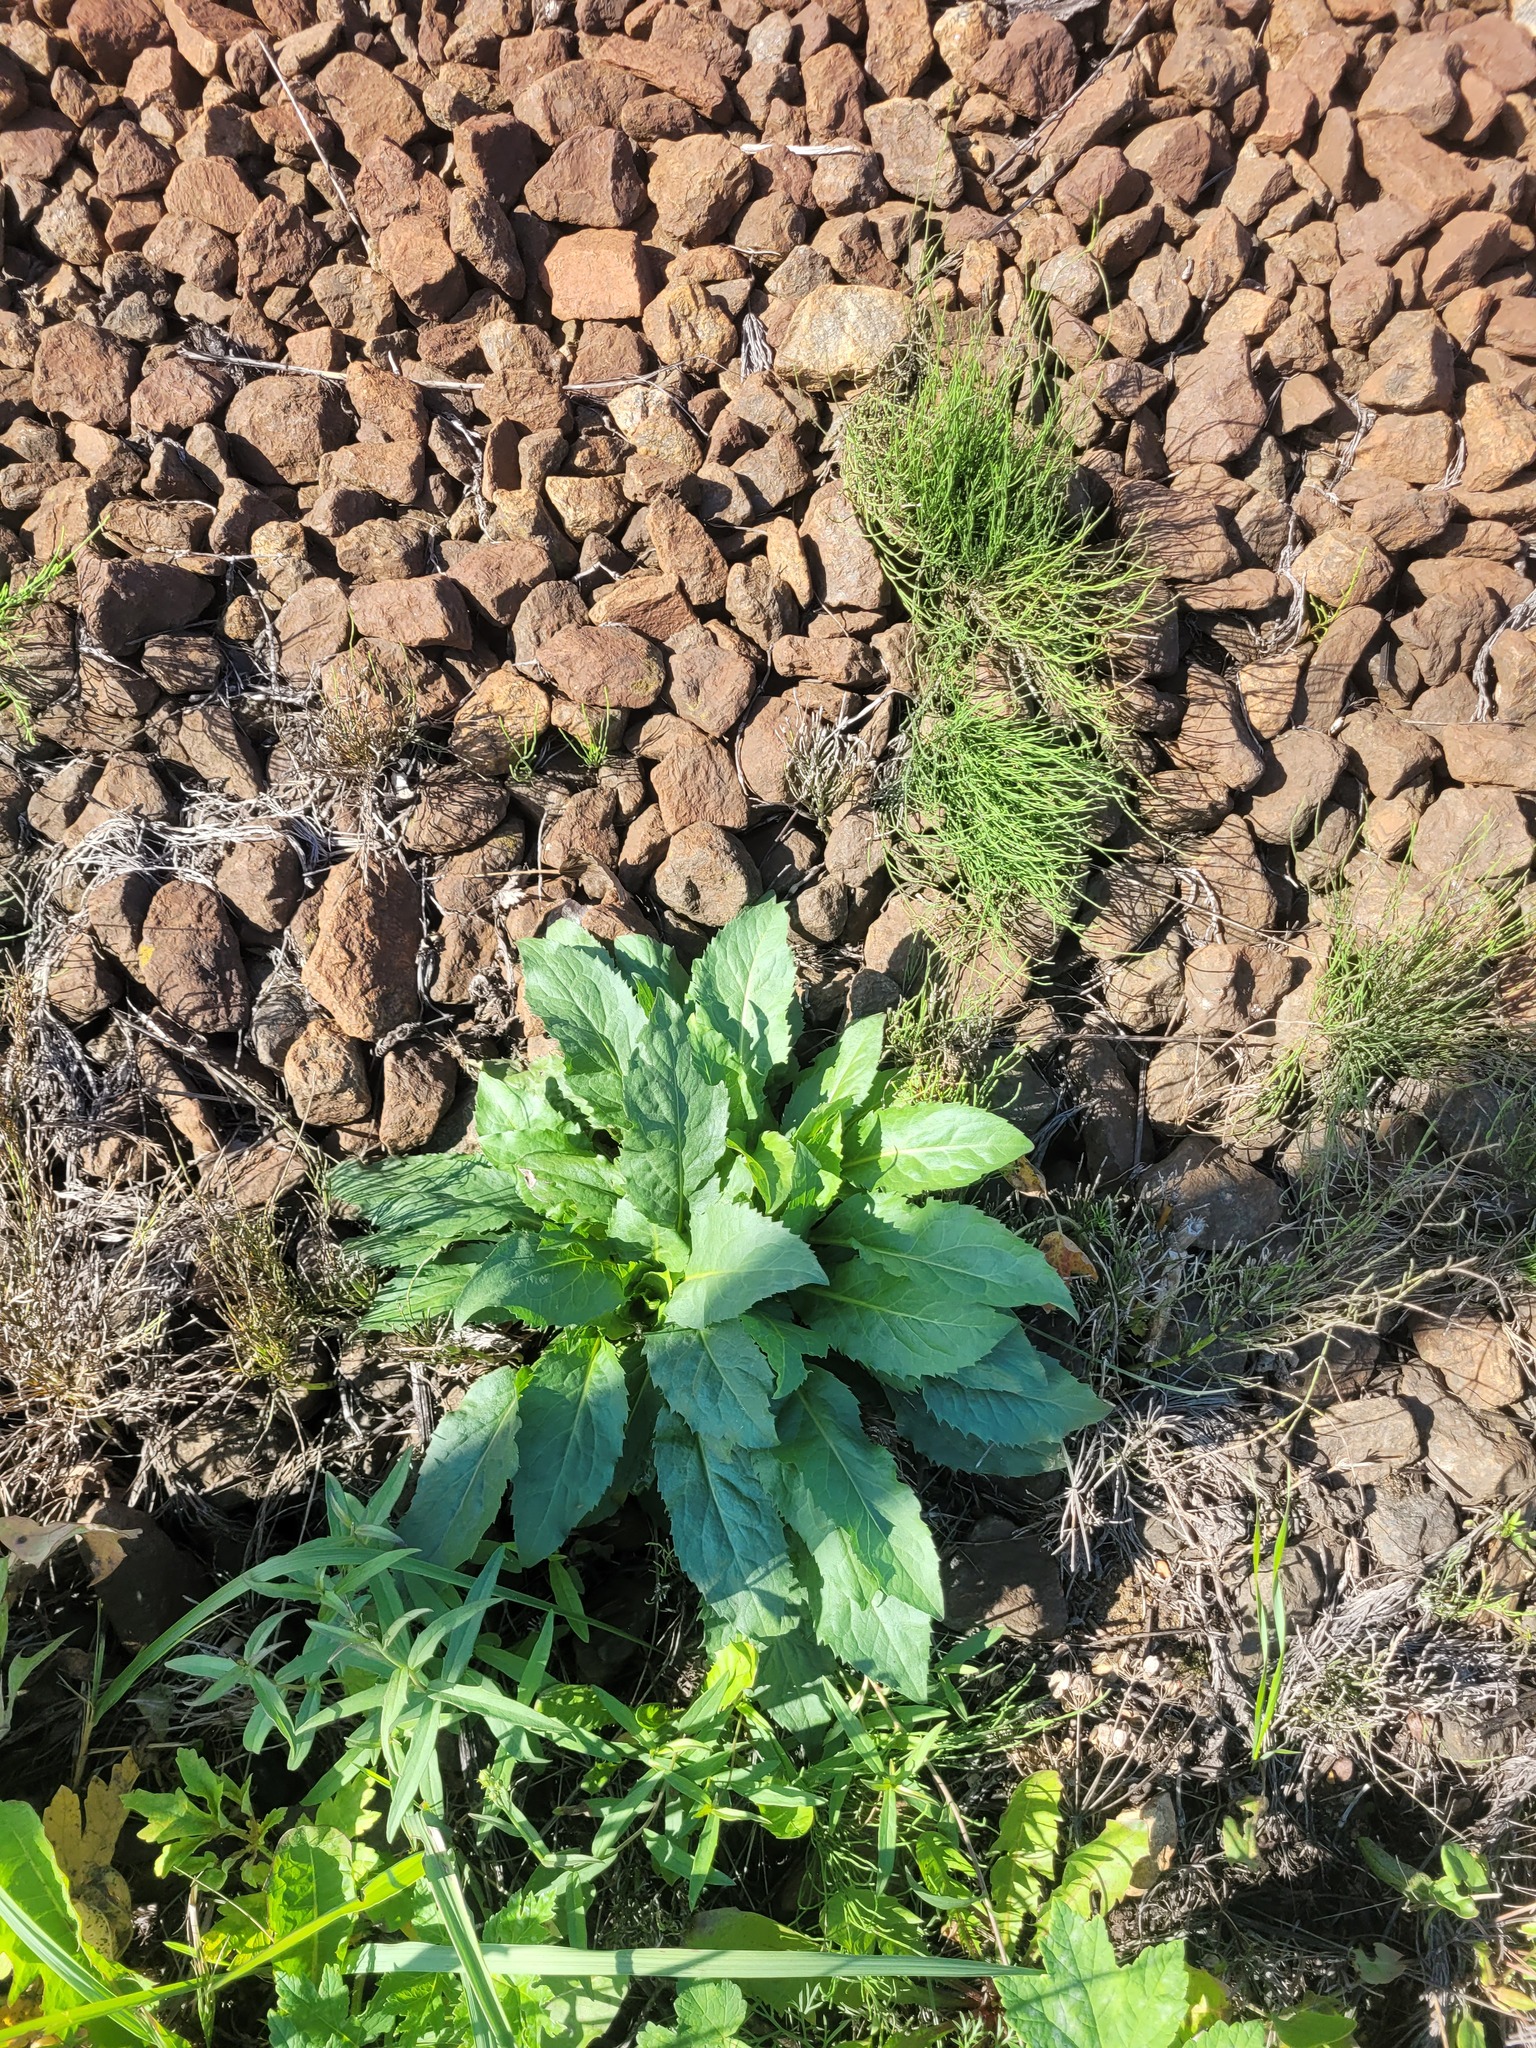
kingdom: Plantae
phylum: Tracheophyta
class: Magnoliopsida
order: Asterales
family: Asteraceae
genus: Solidago
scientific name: Solidago virgaurea
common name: Goldenrod
